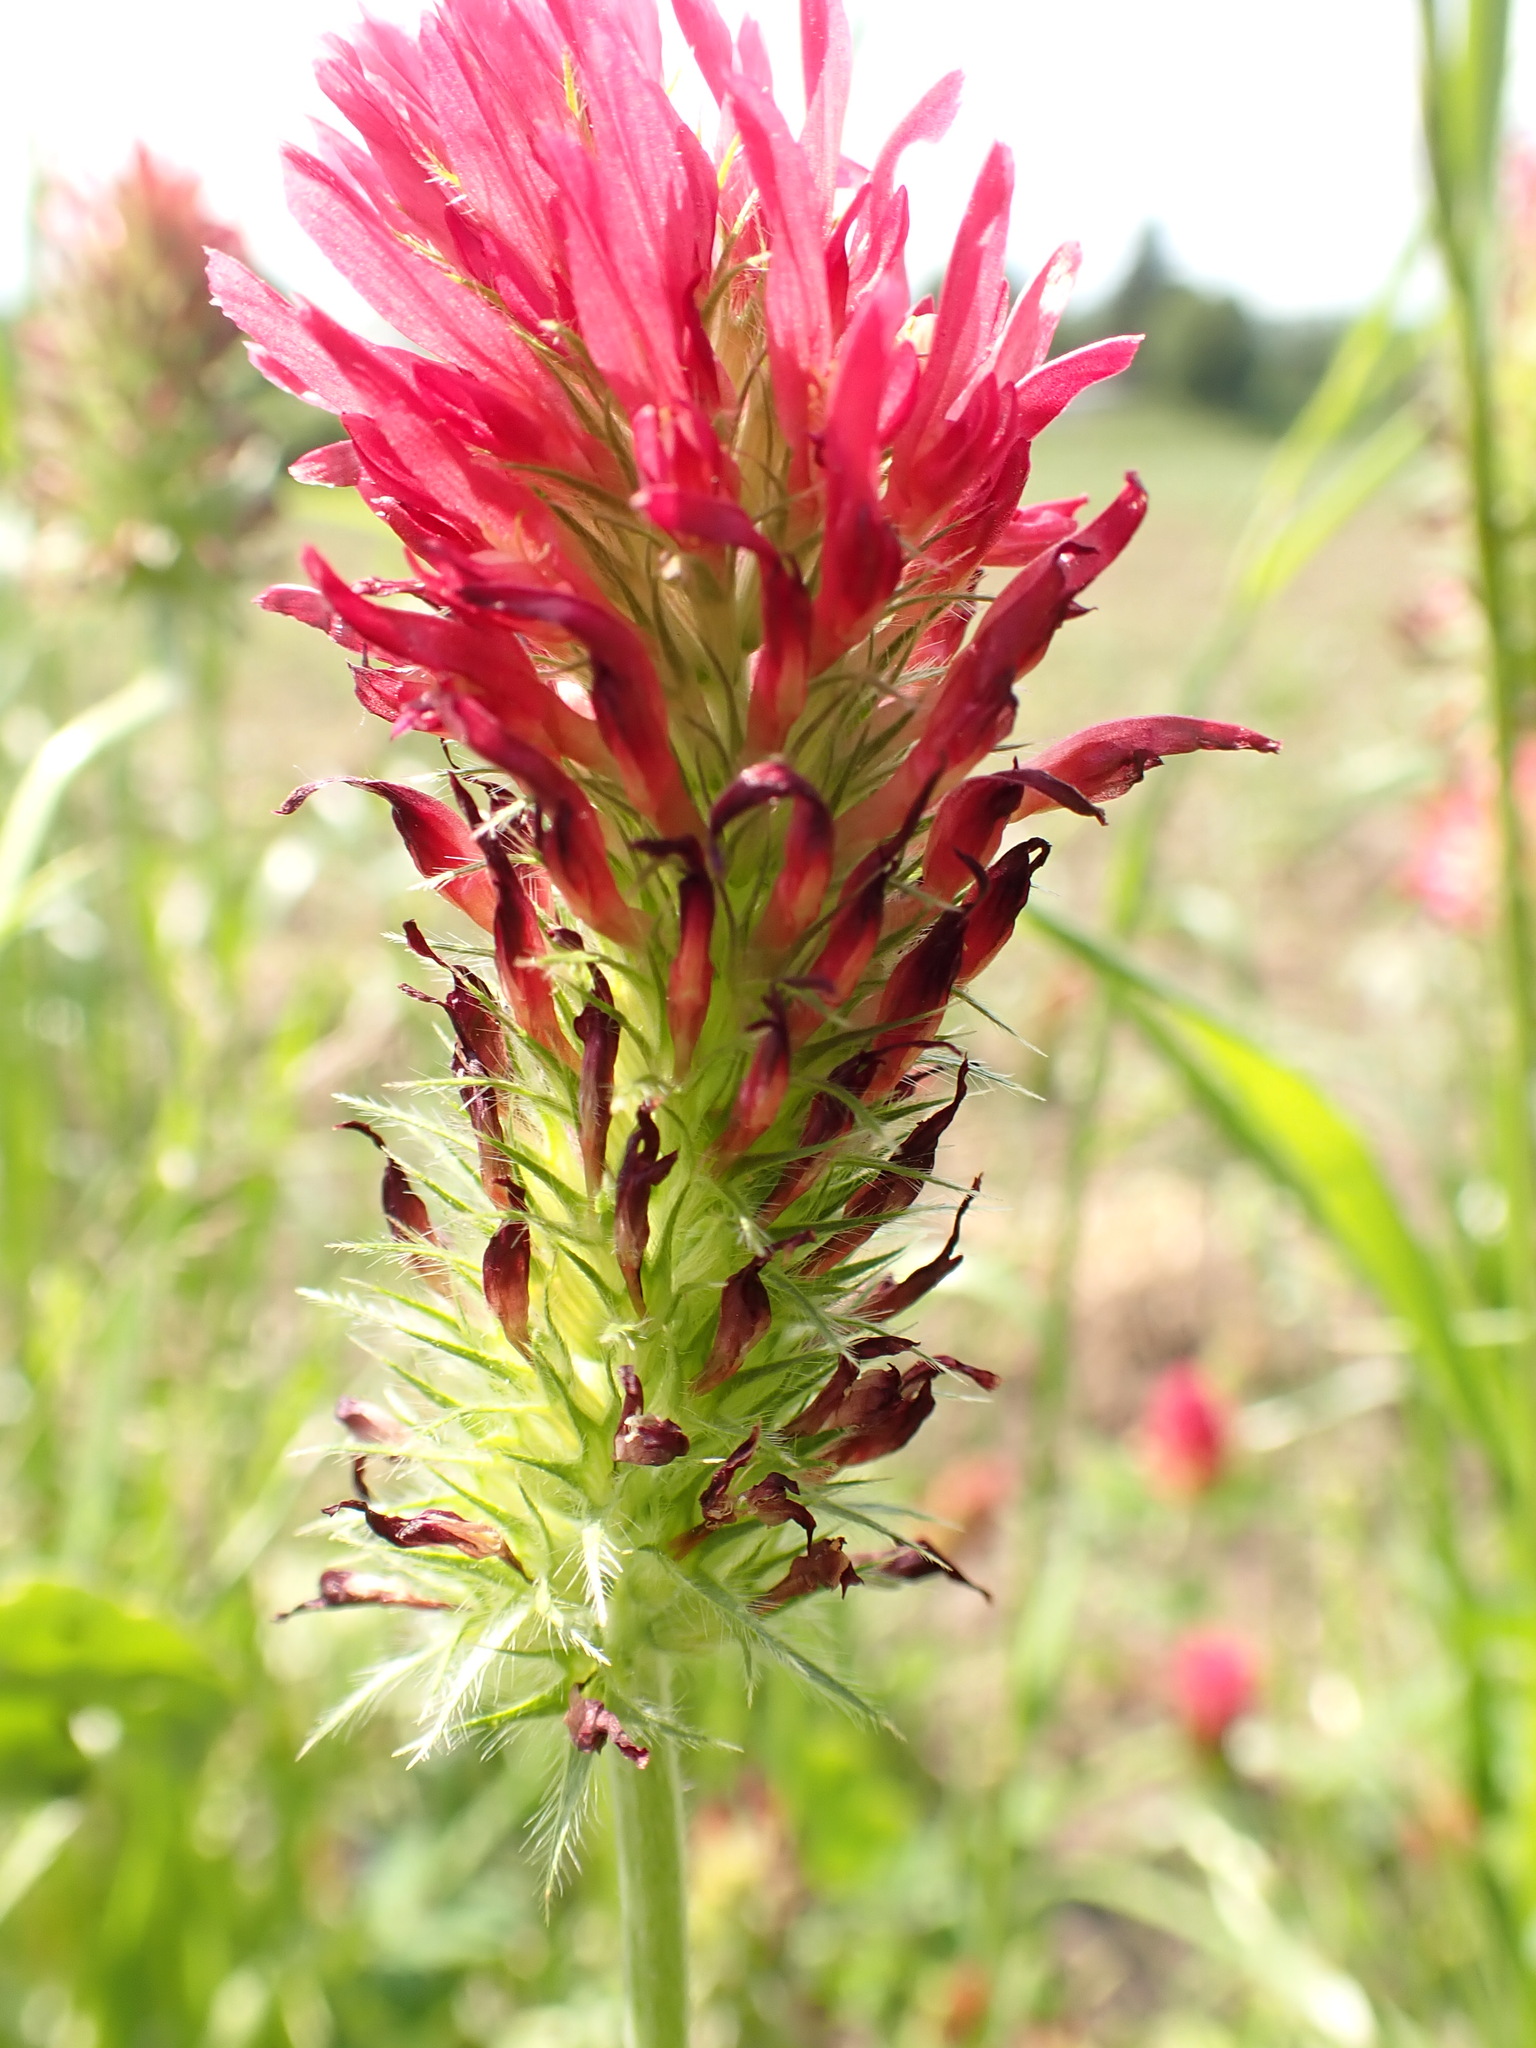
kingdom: Plantae
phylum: Tracheophyta
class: Magnoliopsida
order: Fabales
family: Fabaceae
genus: Trifolium
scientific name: Trifolium incarnatum
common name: Crimson clover
